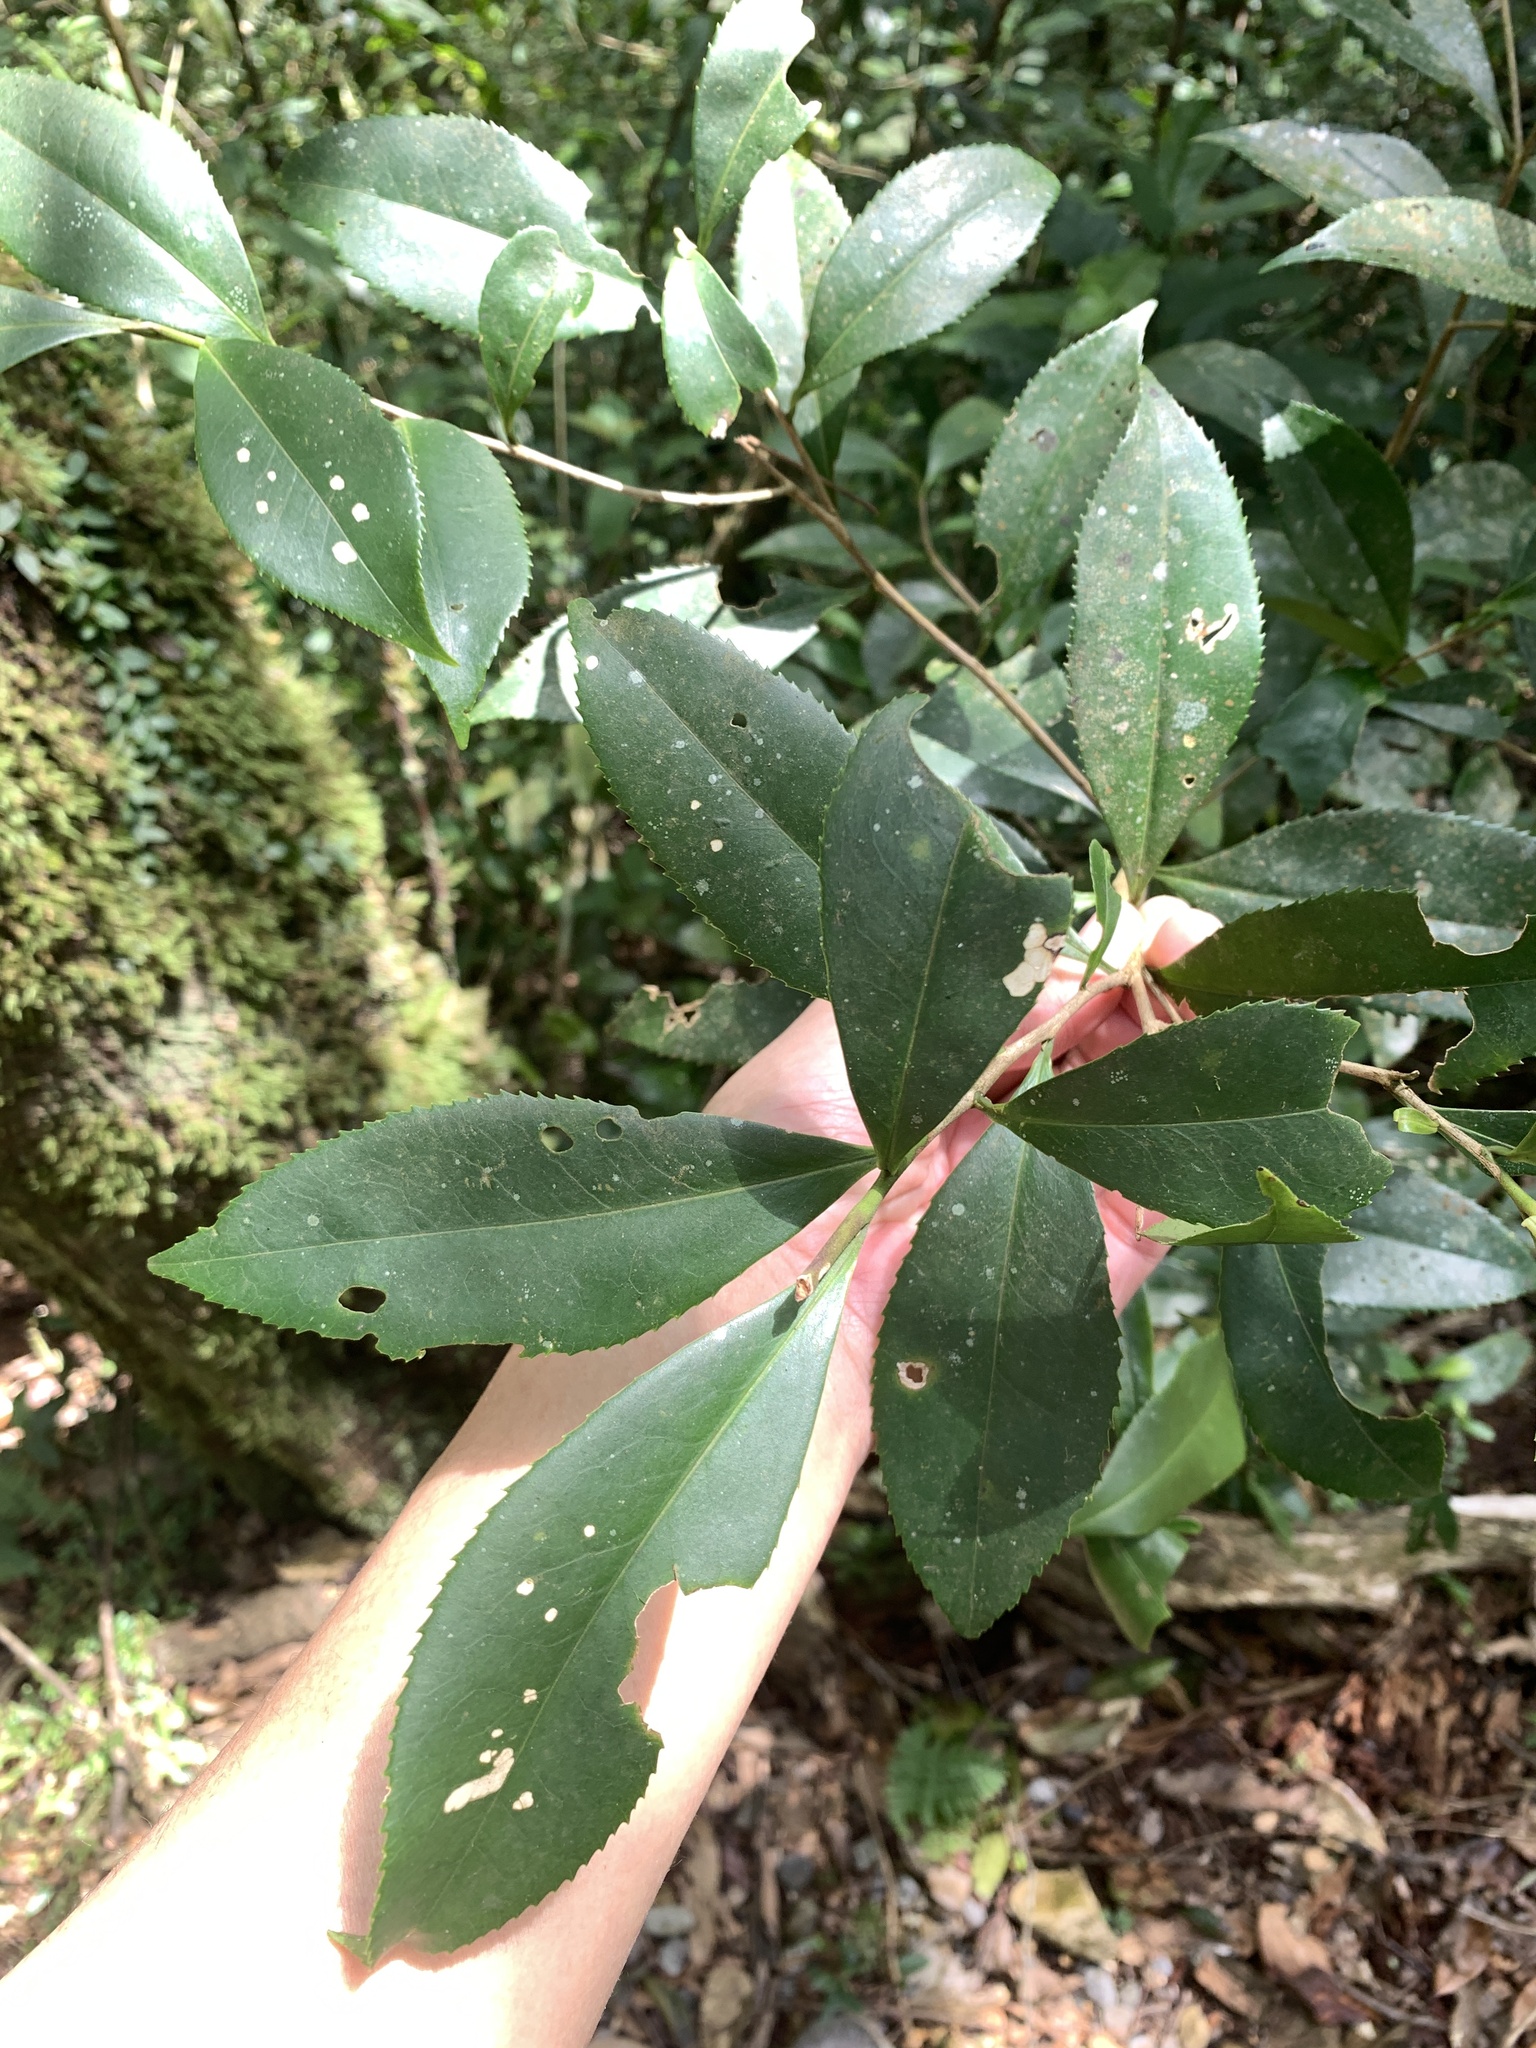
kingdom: Plantae
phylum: Tracheophyta
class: Magnoliopsida
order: Ericales
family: Theaceae
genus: Pyrenaria
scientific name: Pyrenaria microcarpa
